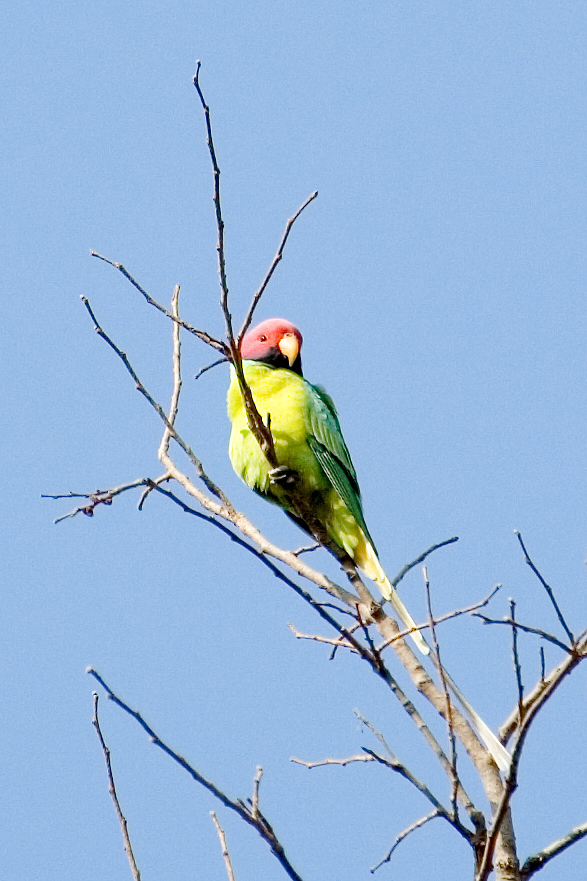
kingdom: Animalia
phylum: Chordata
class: Aves
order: Psittaciformes
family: Psittacidae
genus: Psittacula
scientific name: Psittacula cyanocephala
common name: Plum-headed parakeet
